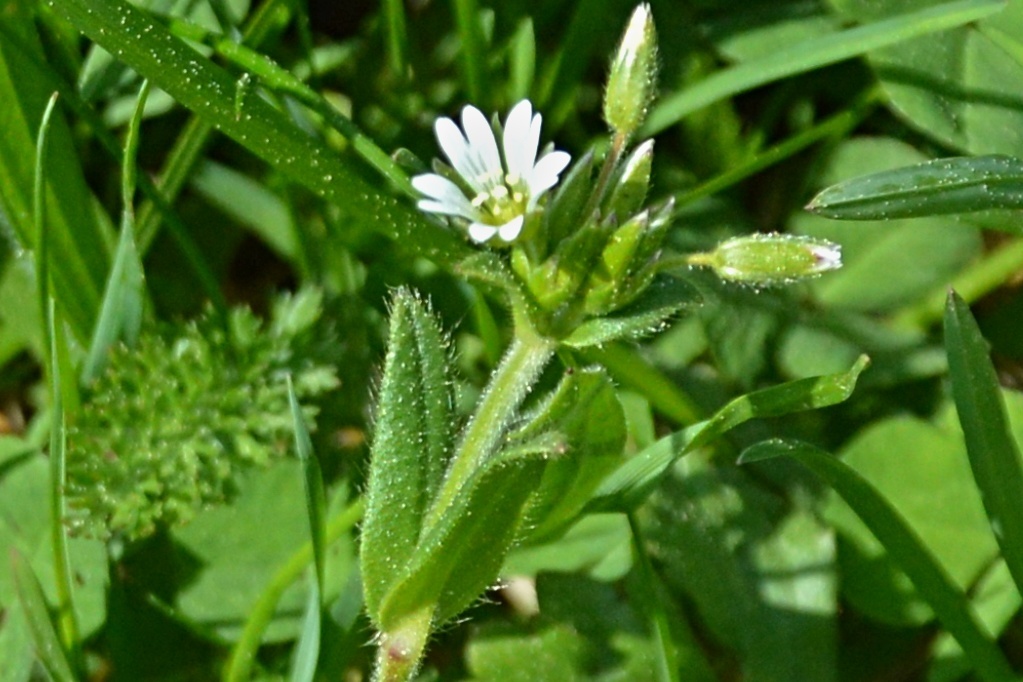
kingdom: Plantae
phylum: Tracheophyta
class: Magnoliopsida
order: Caryophyllales
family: Caryophyllaceae
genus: Cerastium
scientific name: Cerastium holosteoides
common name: Big chickweed
